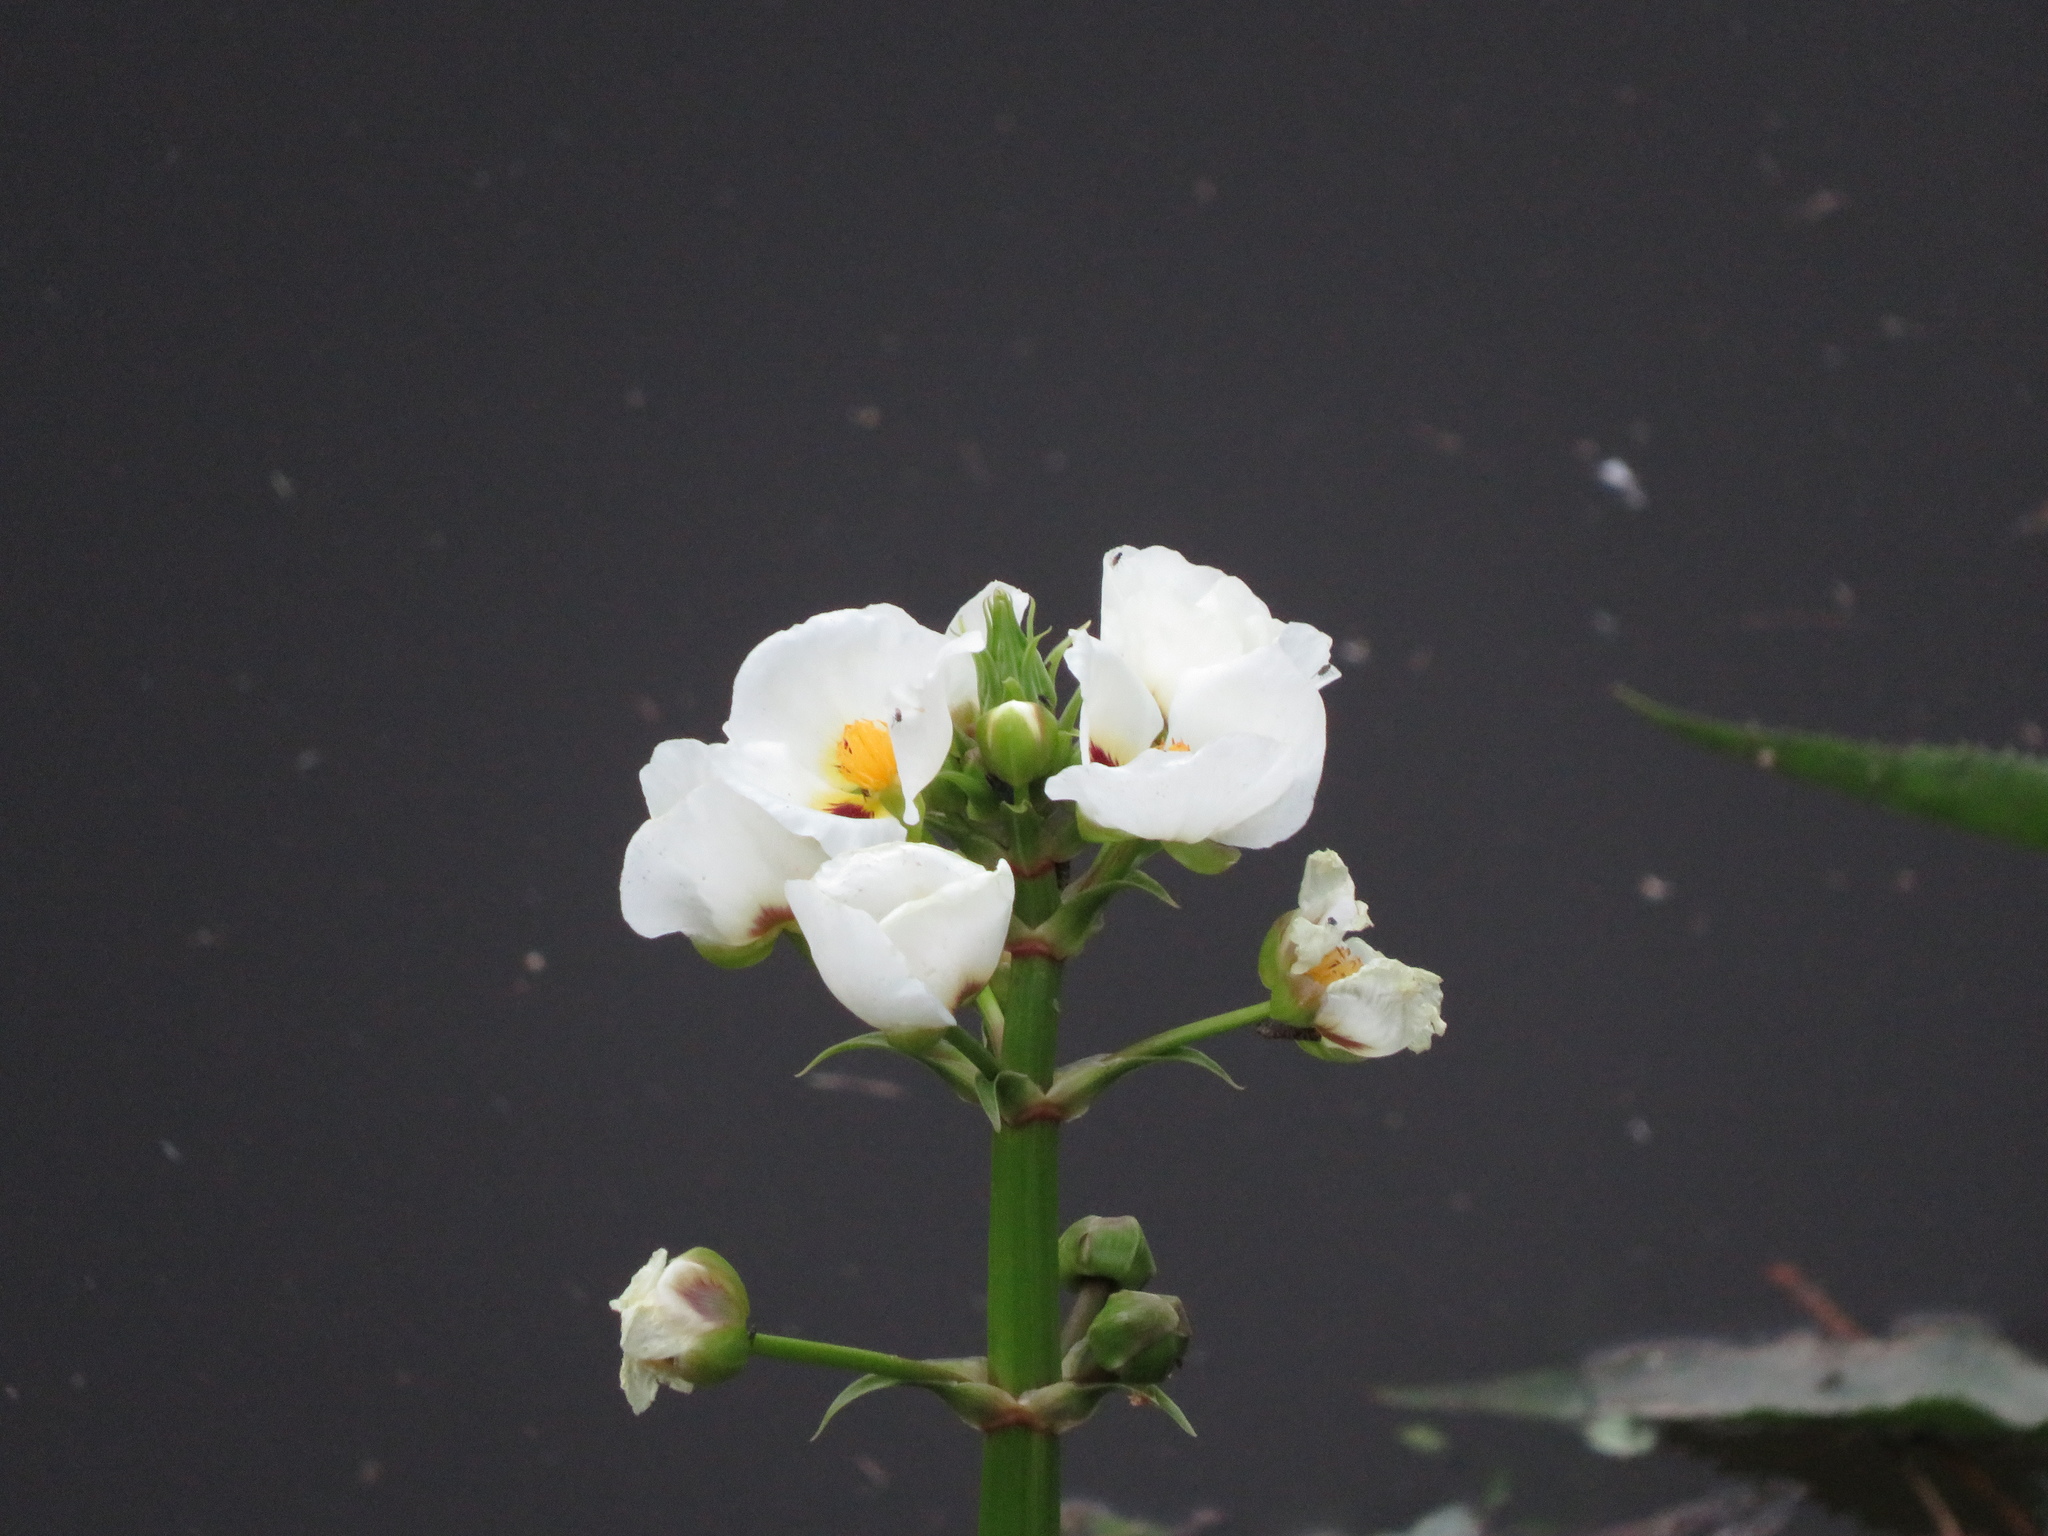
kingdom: Plantae
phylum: Tracheophyta
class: Liliopsida
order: Alismatales
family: Alismataceae
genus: Sagittaria
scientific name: Sagittaria montevidensis
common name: Giant arrowhead
